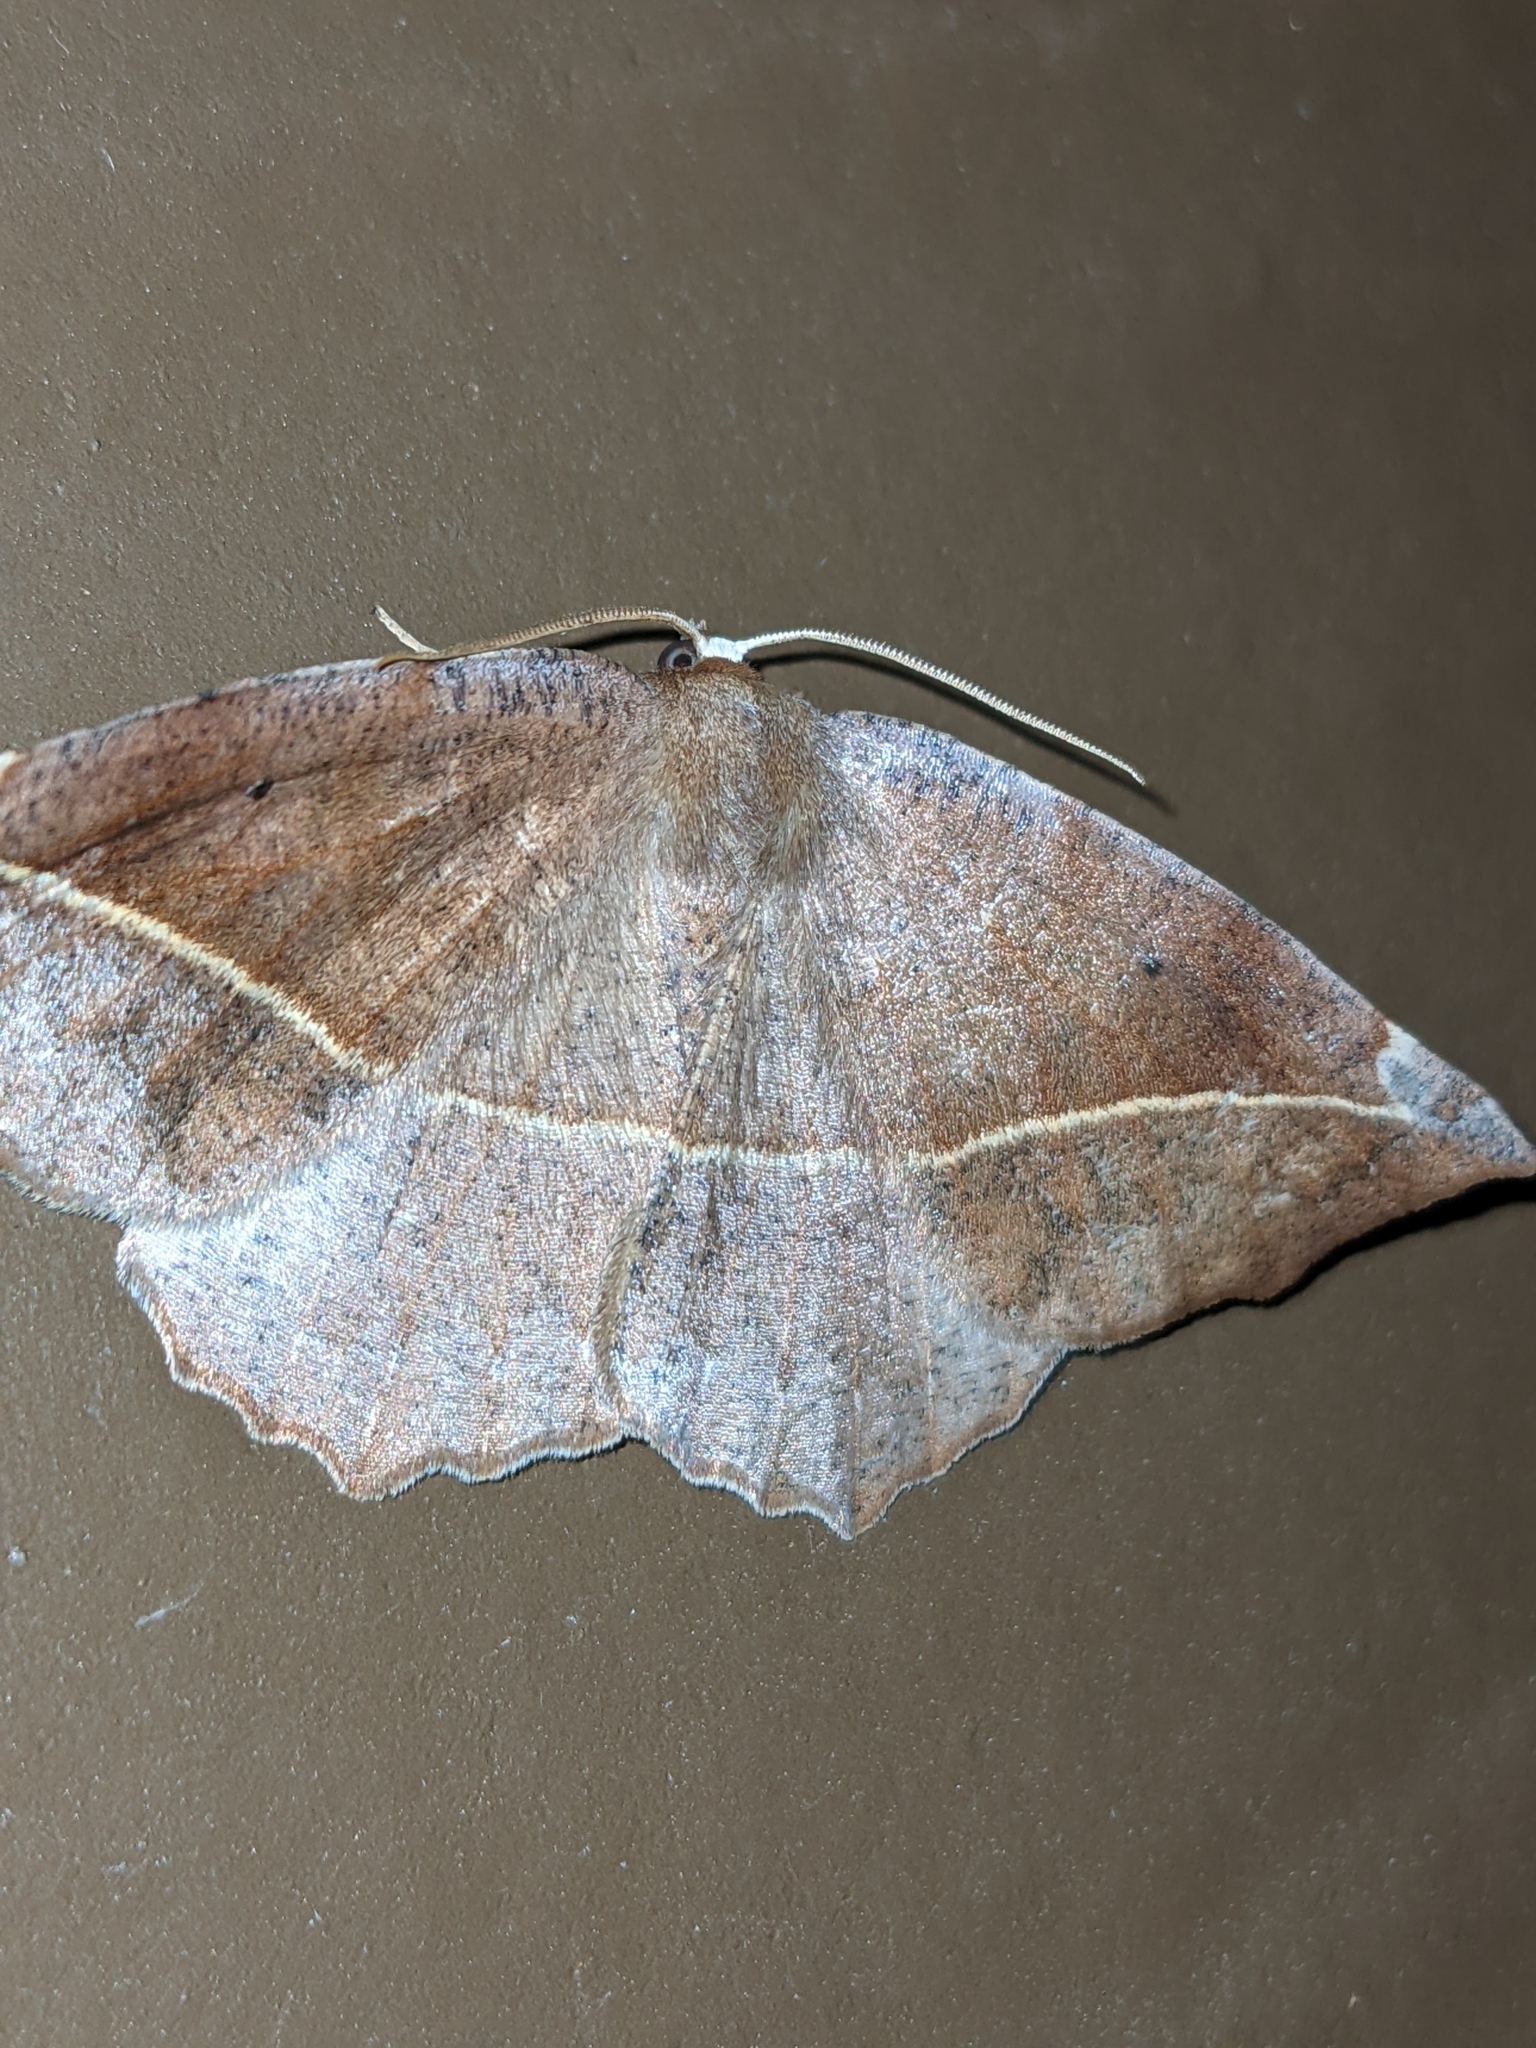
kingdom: Animalia
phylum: Arthropoda
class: Insecta
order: Lepidoptera
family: Geometridae
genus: Eutrapela
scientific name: Eutrapela clemataria
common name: Curved-toothed geometer
